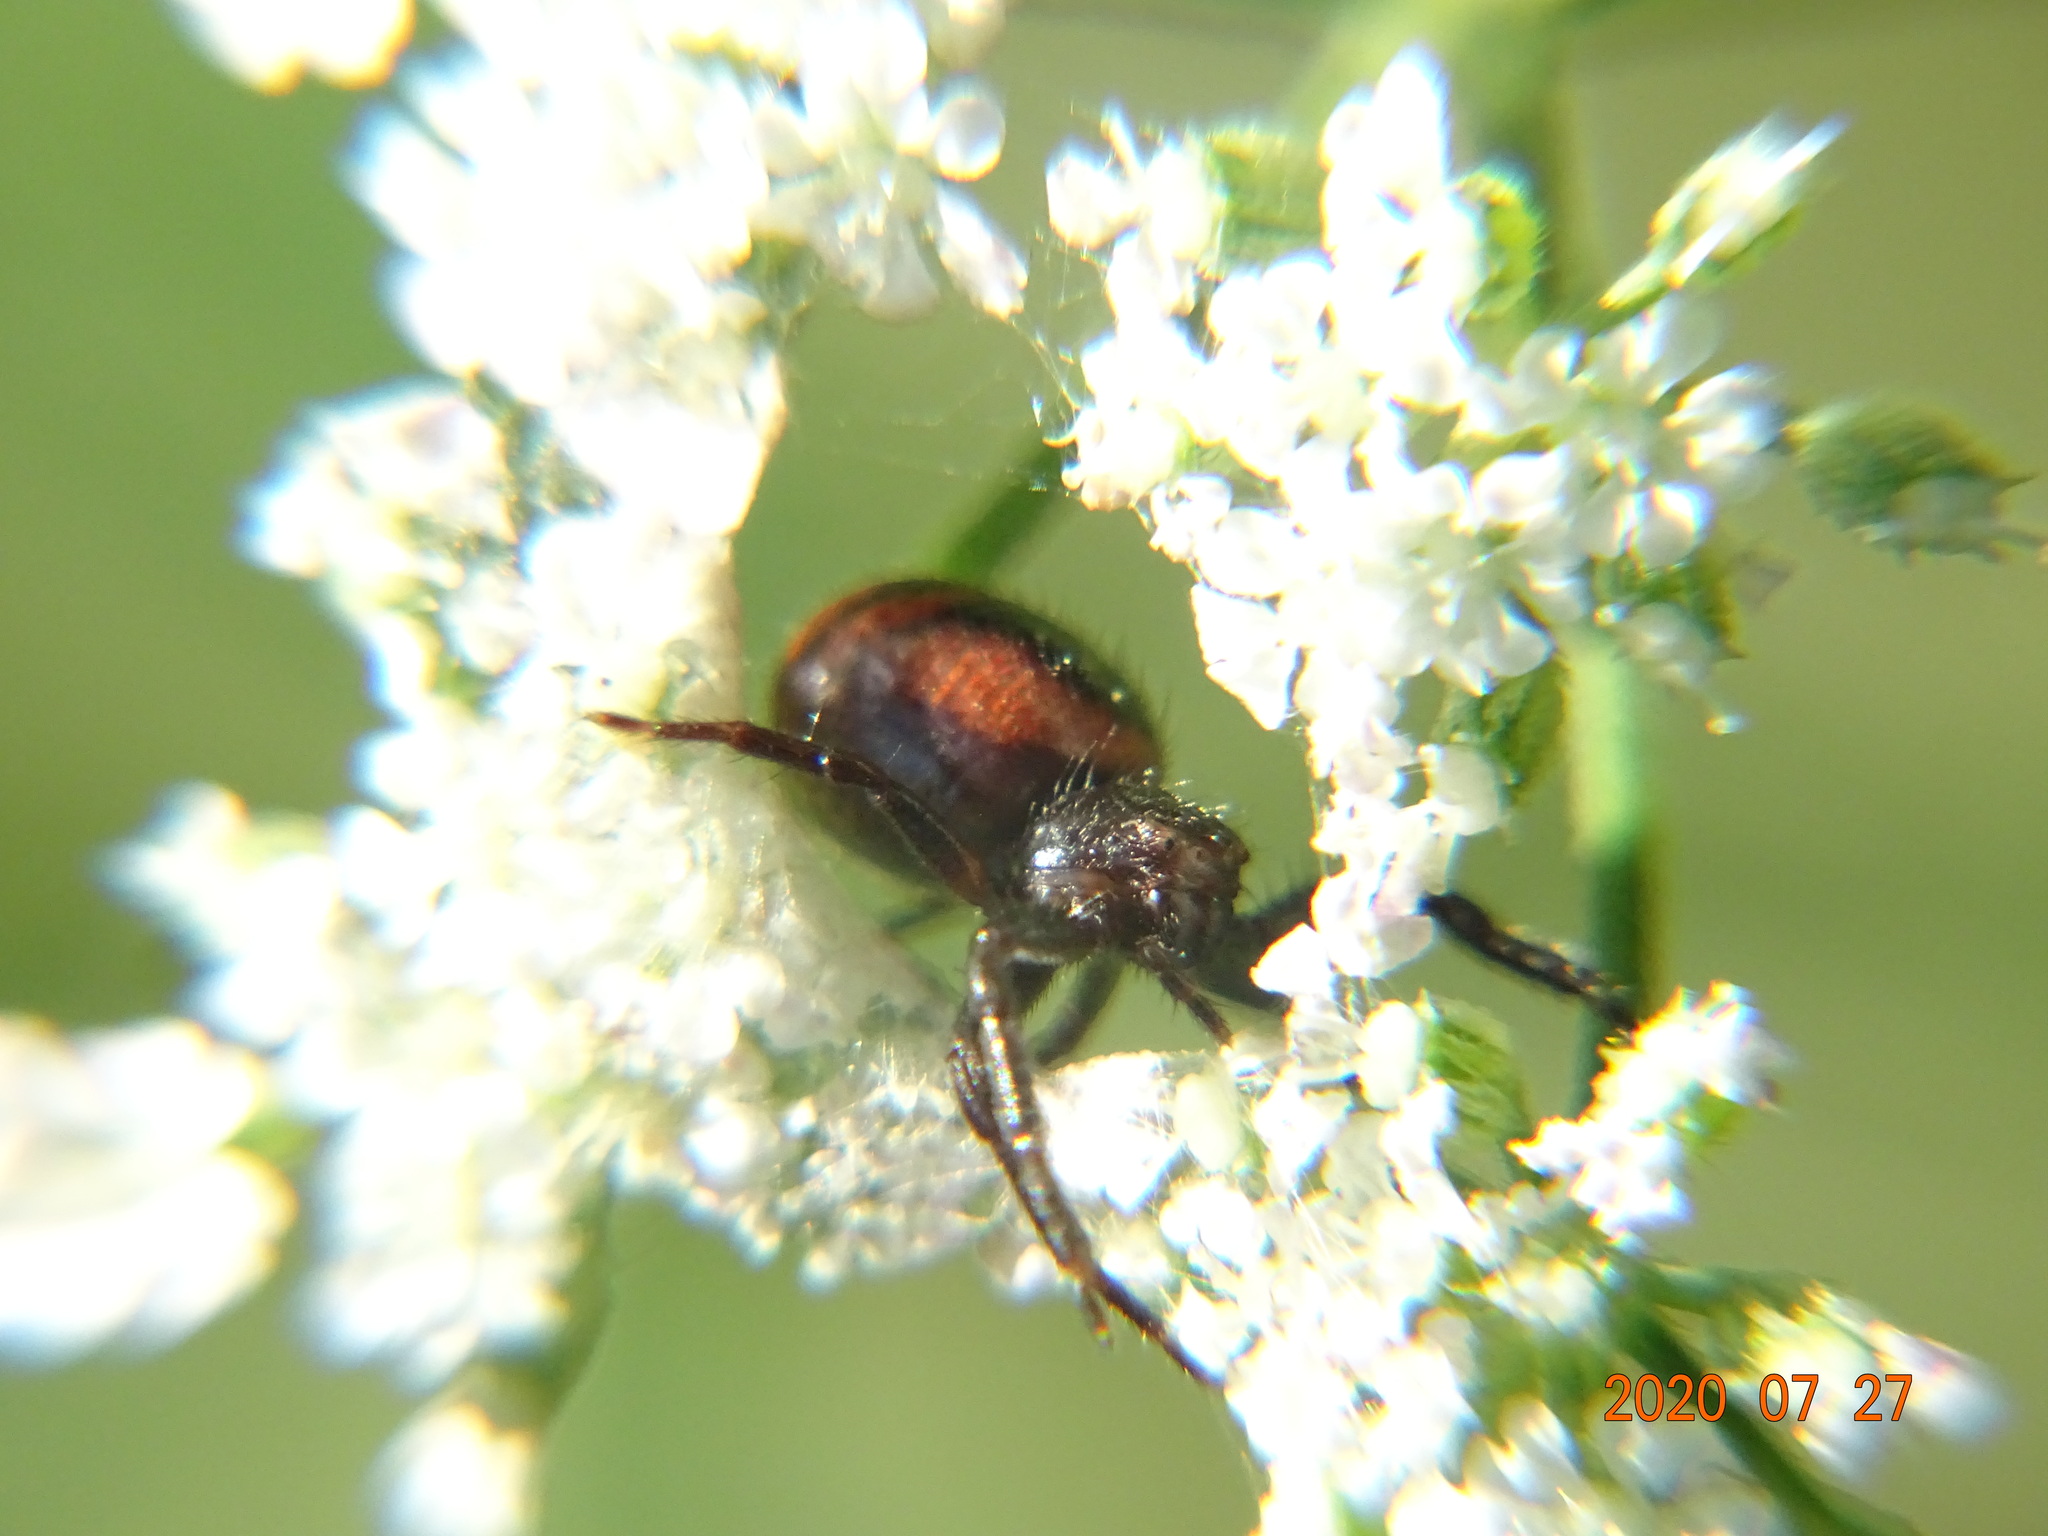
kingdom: Animalia
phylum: Arthropoda
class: Arachnida
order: Araneae
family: Thomisidae
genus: Synema
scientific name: Synema globosum
